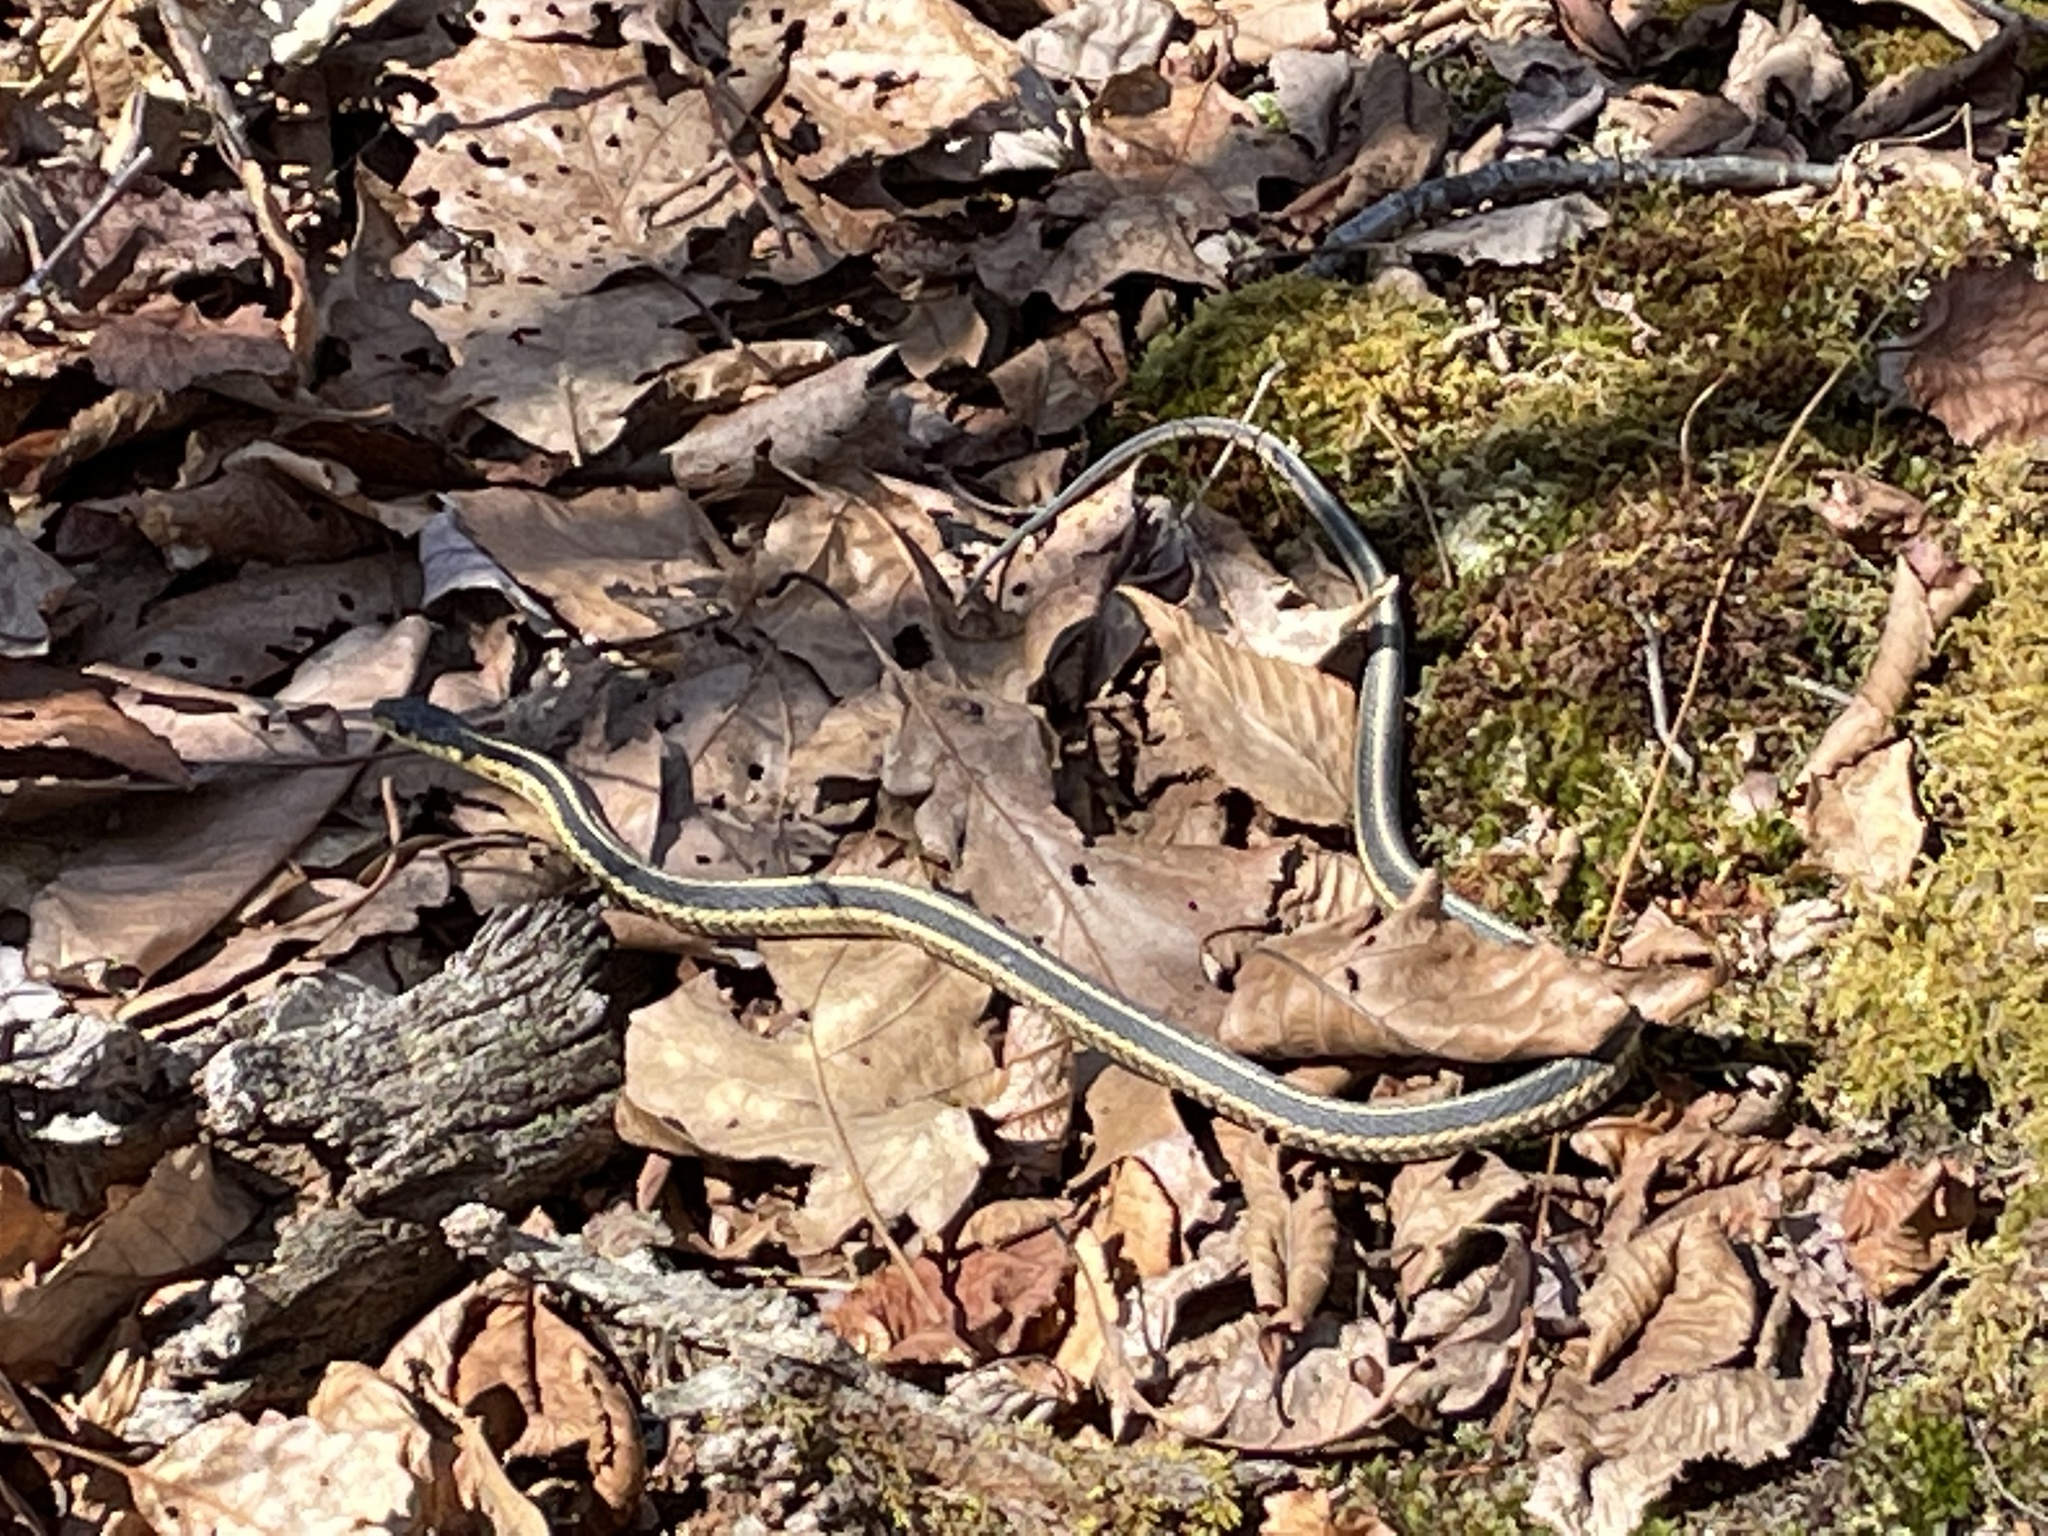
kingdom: Animalia
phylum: Chordata
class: Squamata
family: Colubridae
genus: Thamnophis
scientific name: Thamnophis sirtalis
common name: Common garter snake
